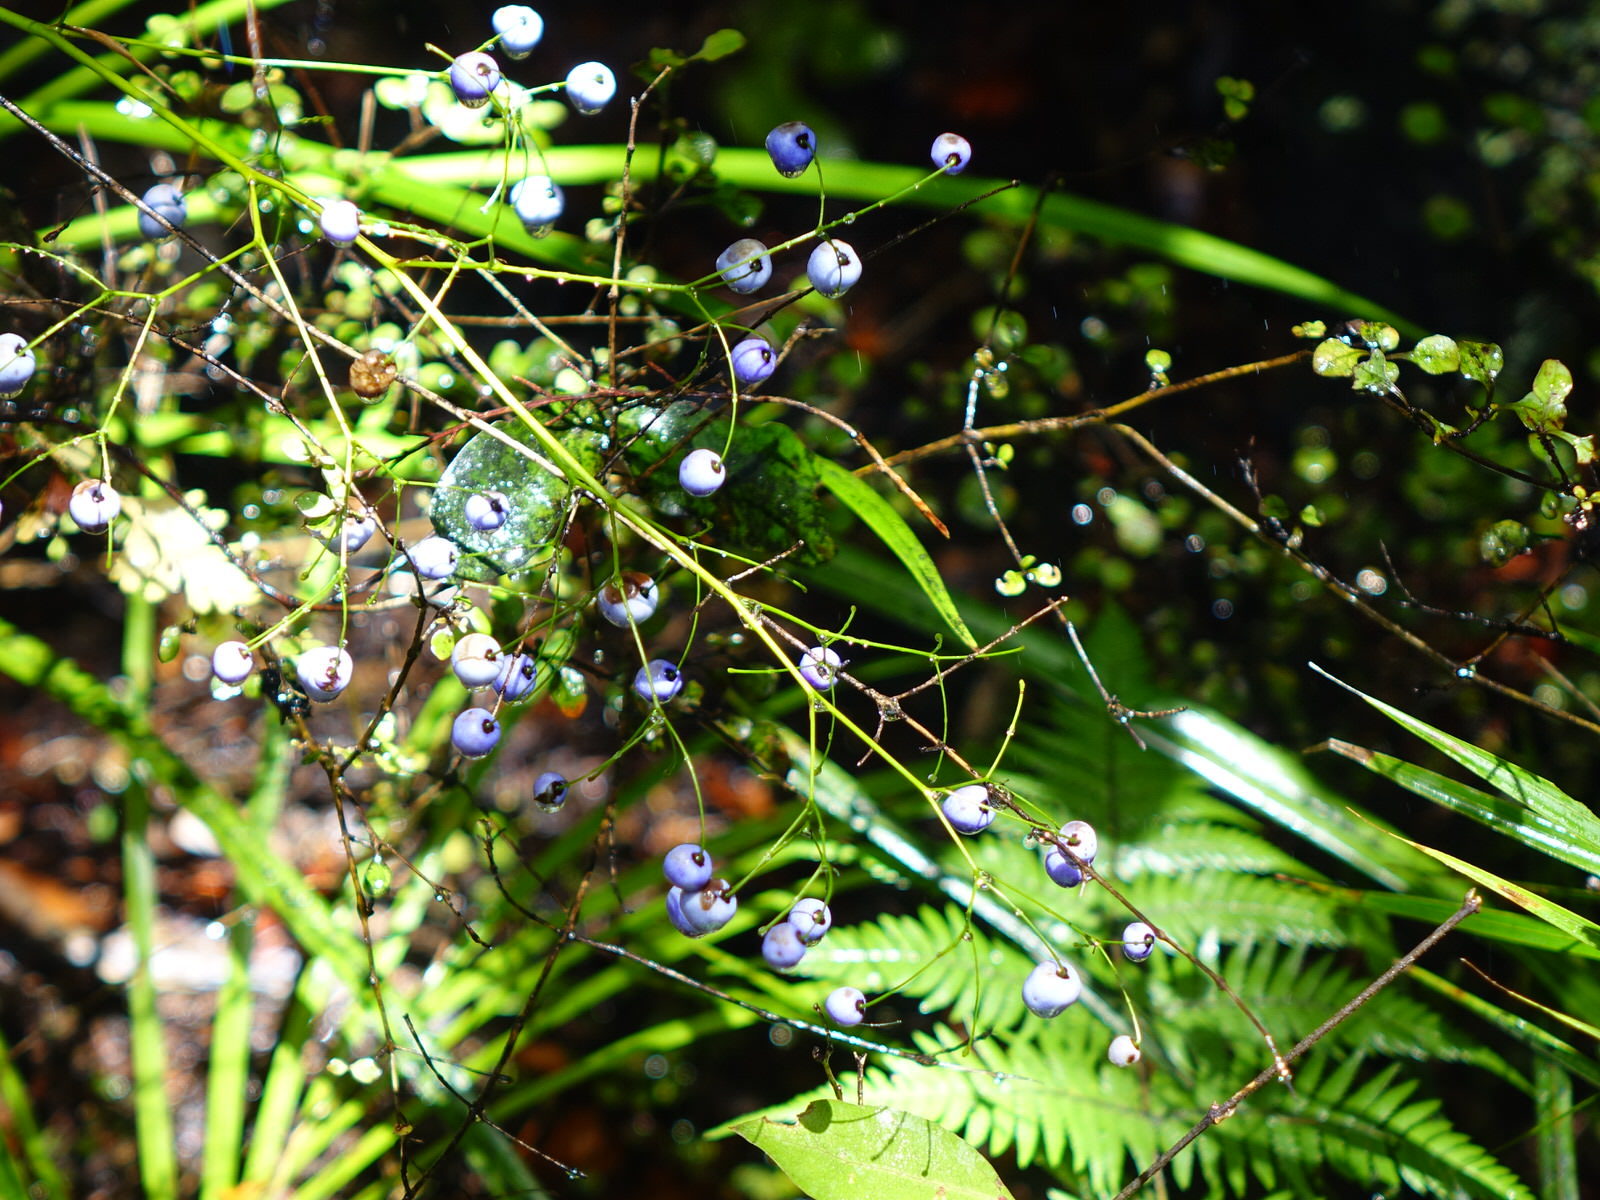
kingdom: Plantae
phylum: Tracheophyta
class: Liliopsida
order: Asparagales
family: Asphodelaceae
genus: Dianella
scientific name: Dianella nigra
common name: New zealand-blueberry
